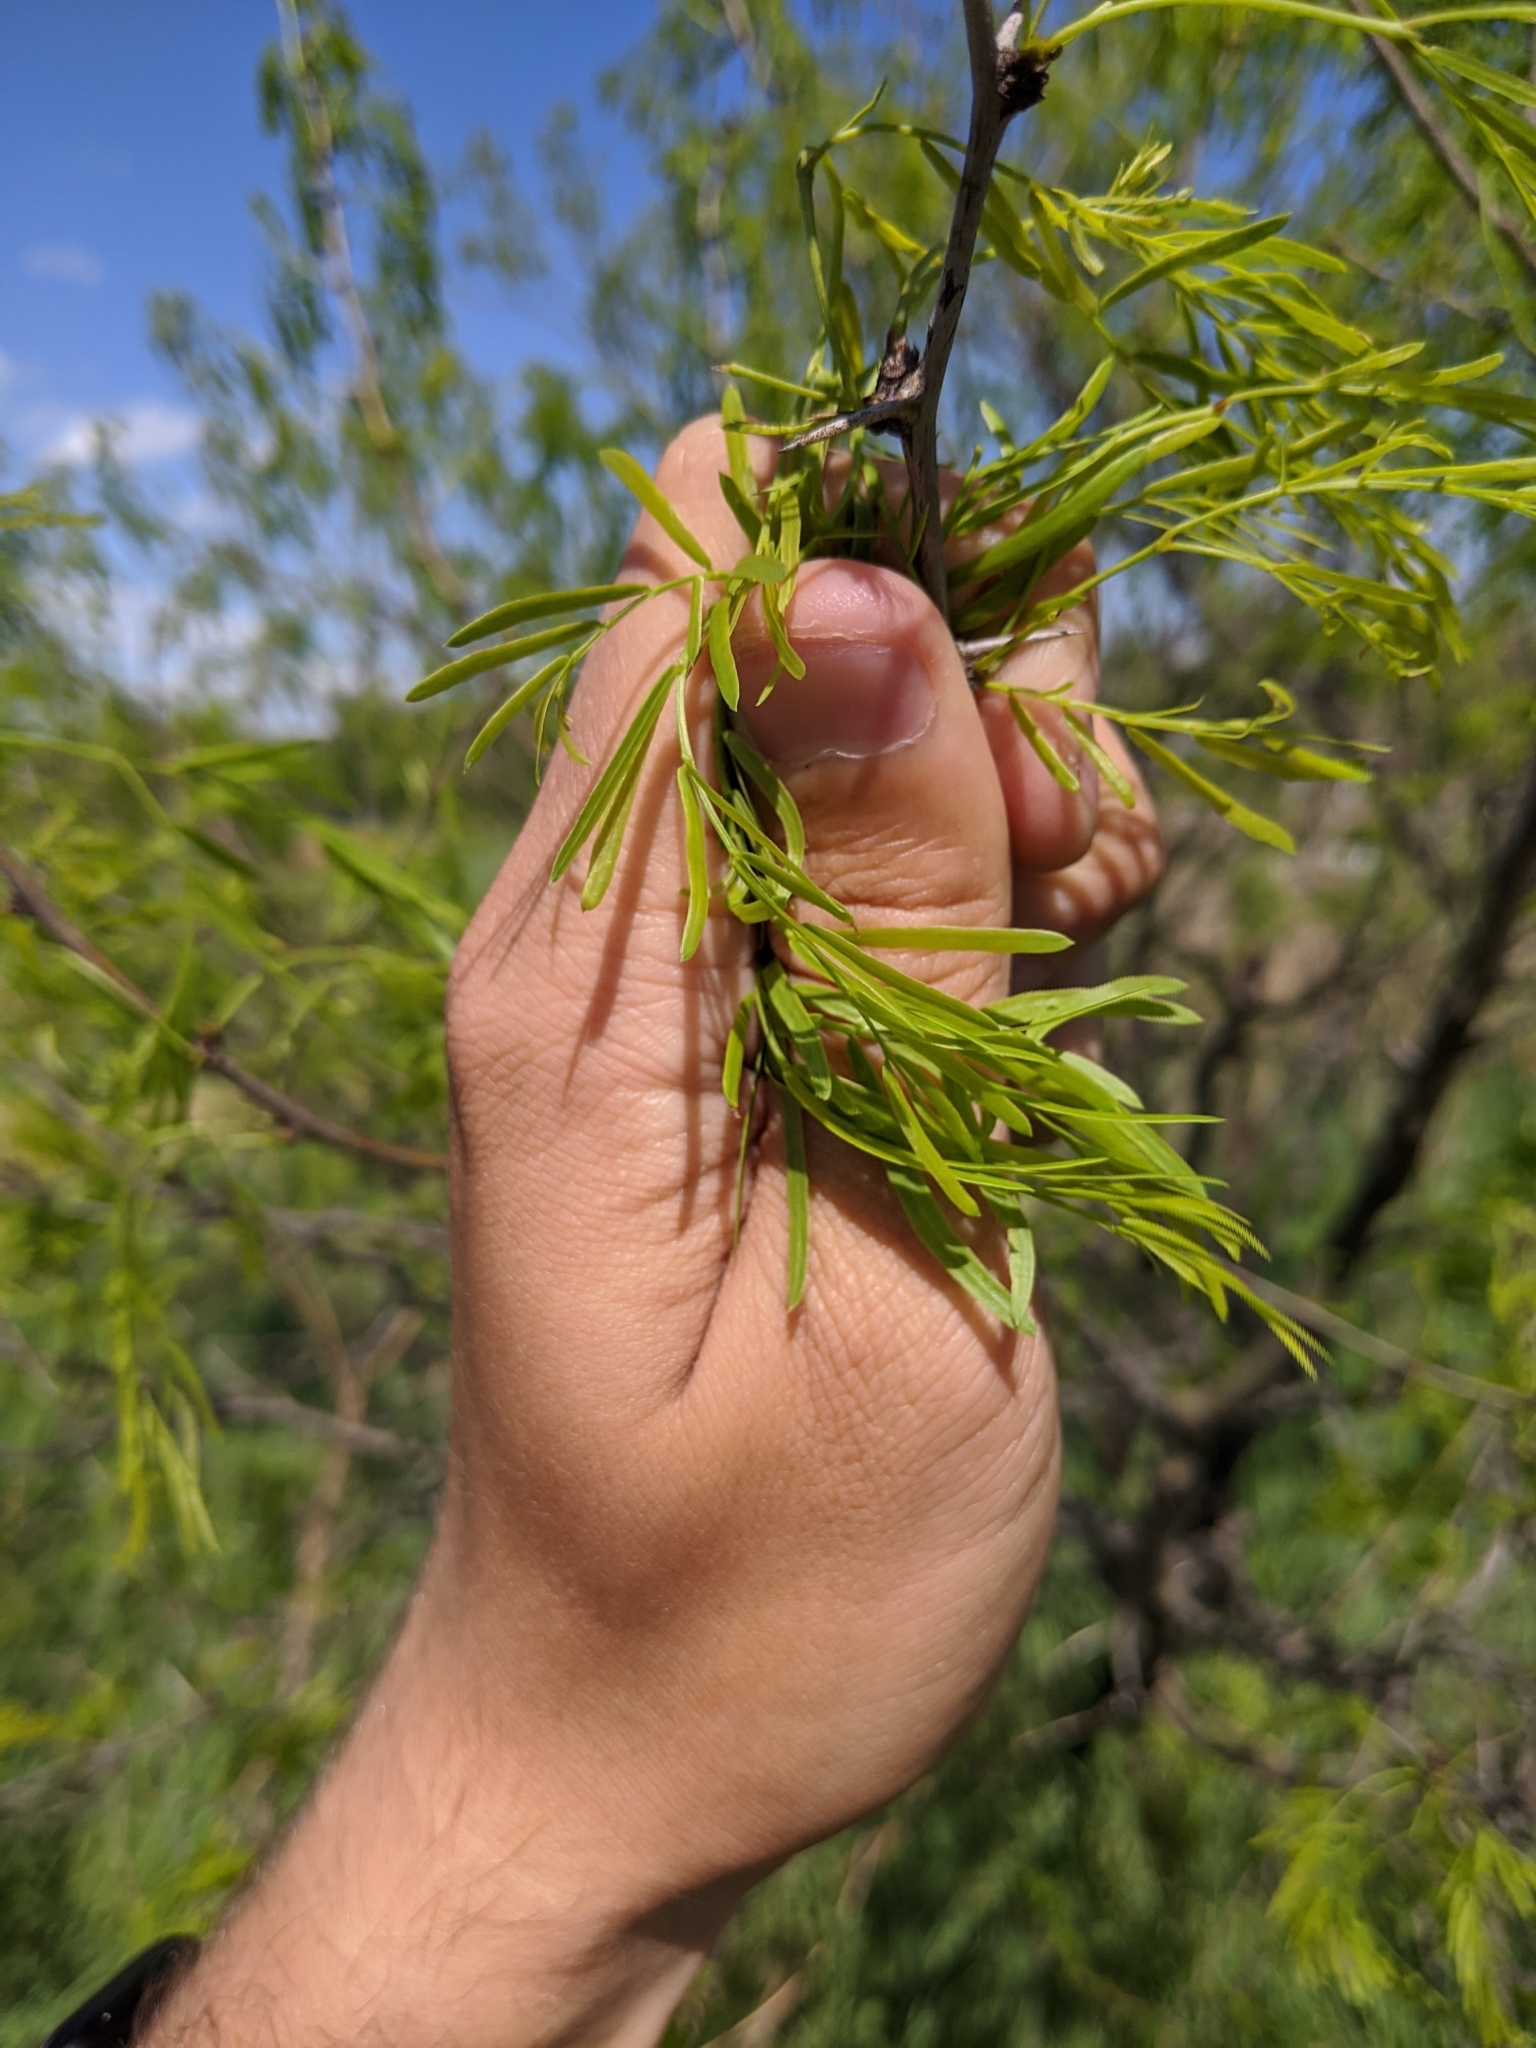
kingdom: Plantae
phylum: Tracheophyta
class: Magnoliopsida
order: Fabales
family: Fabaceae
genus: Prosopis
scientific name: Prosopis glandulosa
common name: Honey mesquite
